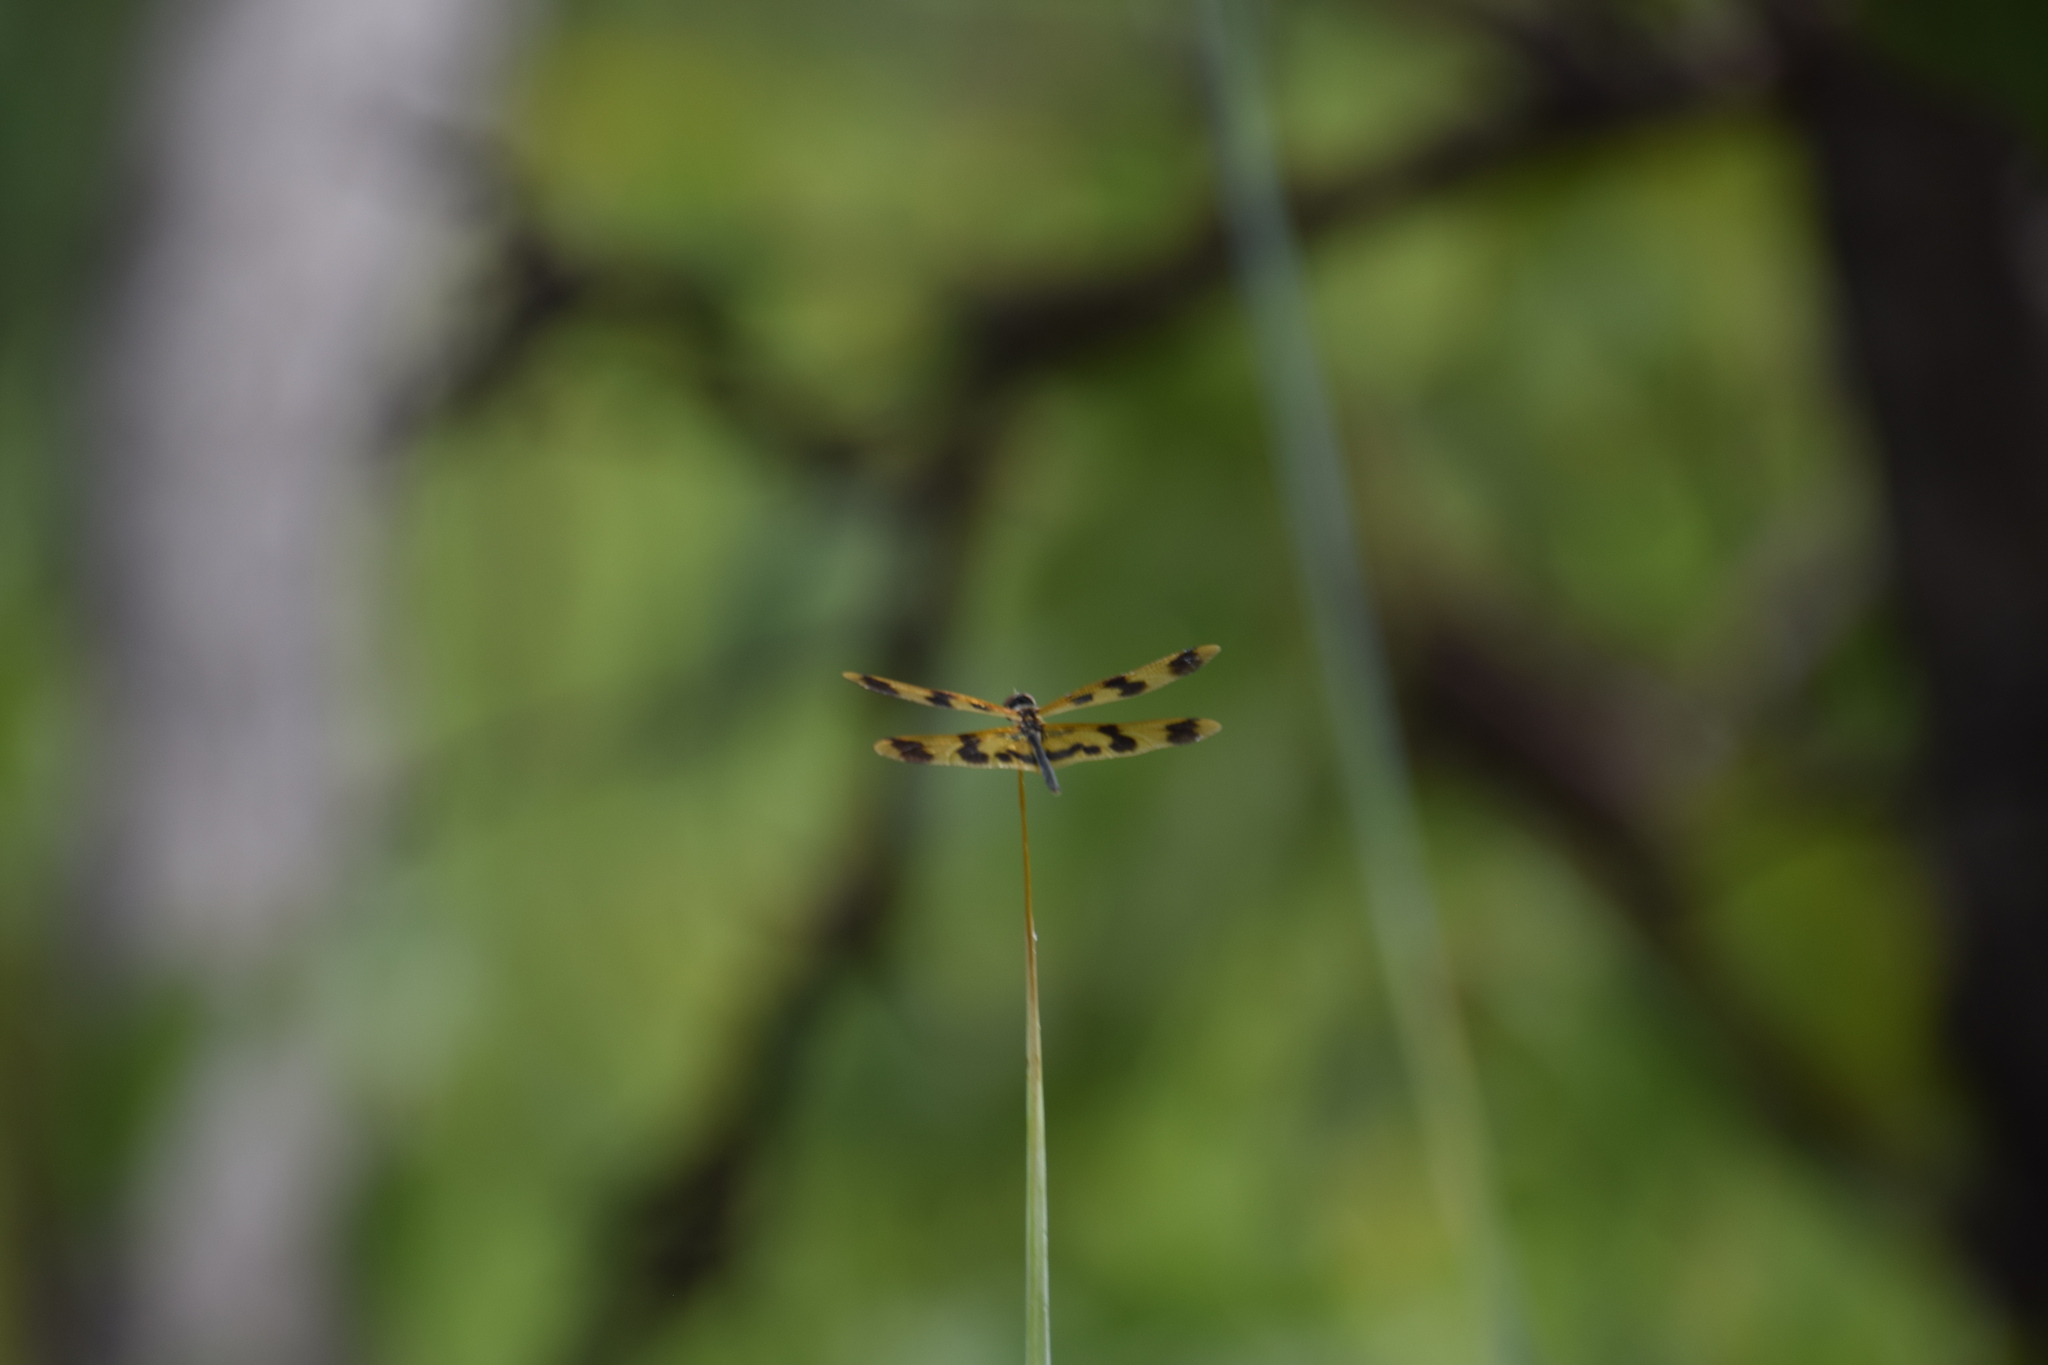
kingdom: Animalia
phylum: Arthropoda
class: Insecta
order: Odonata
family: Libellulidae
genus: Rhyothemis
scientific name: Rhyothemis graphiptera
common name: Graphic flutterer
